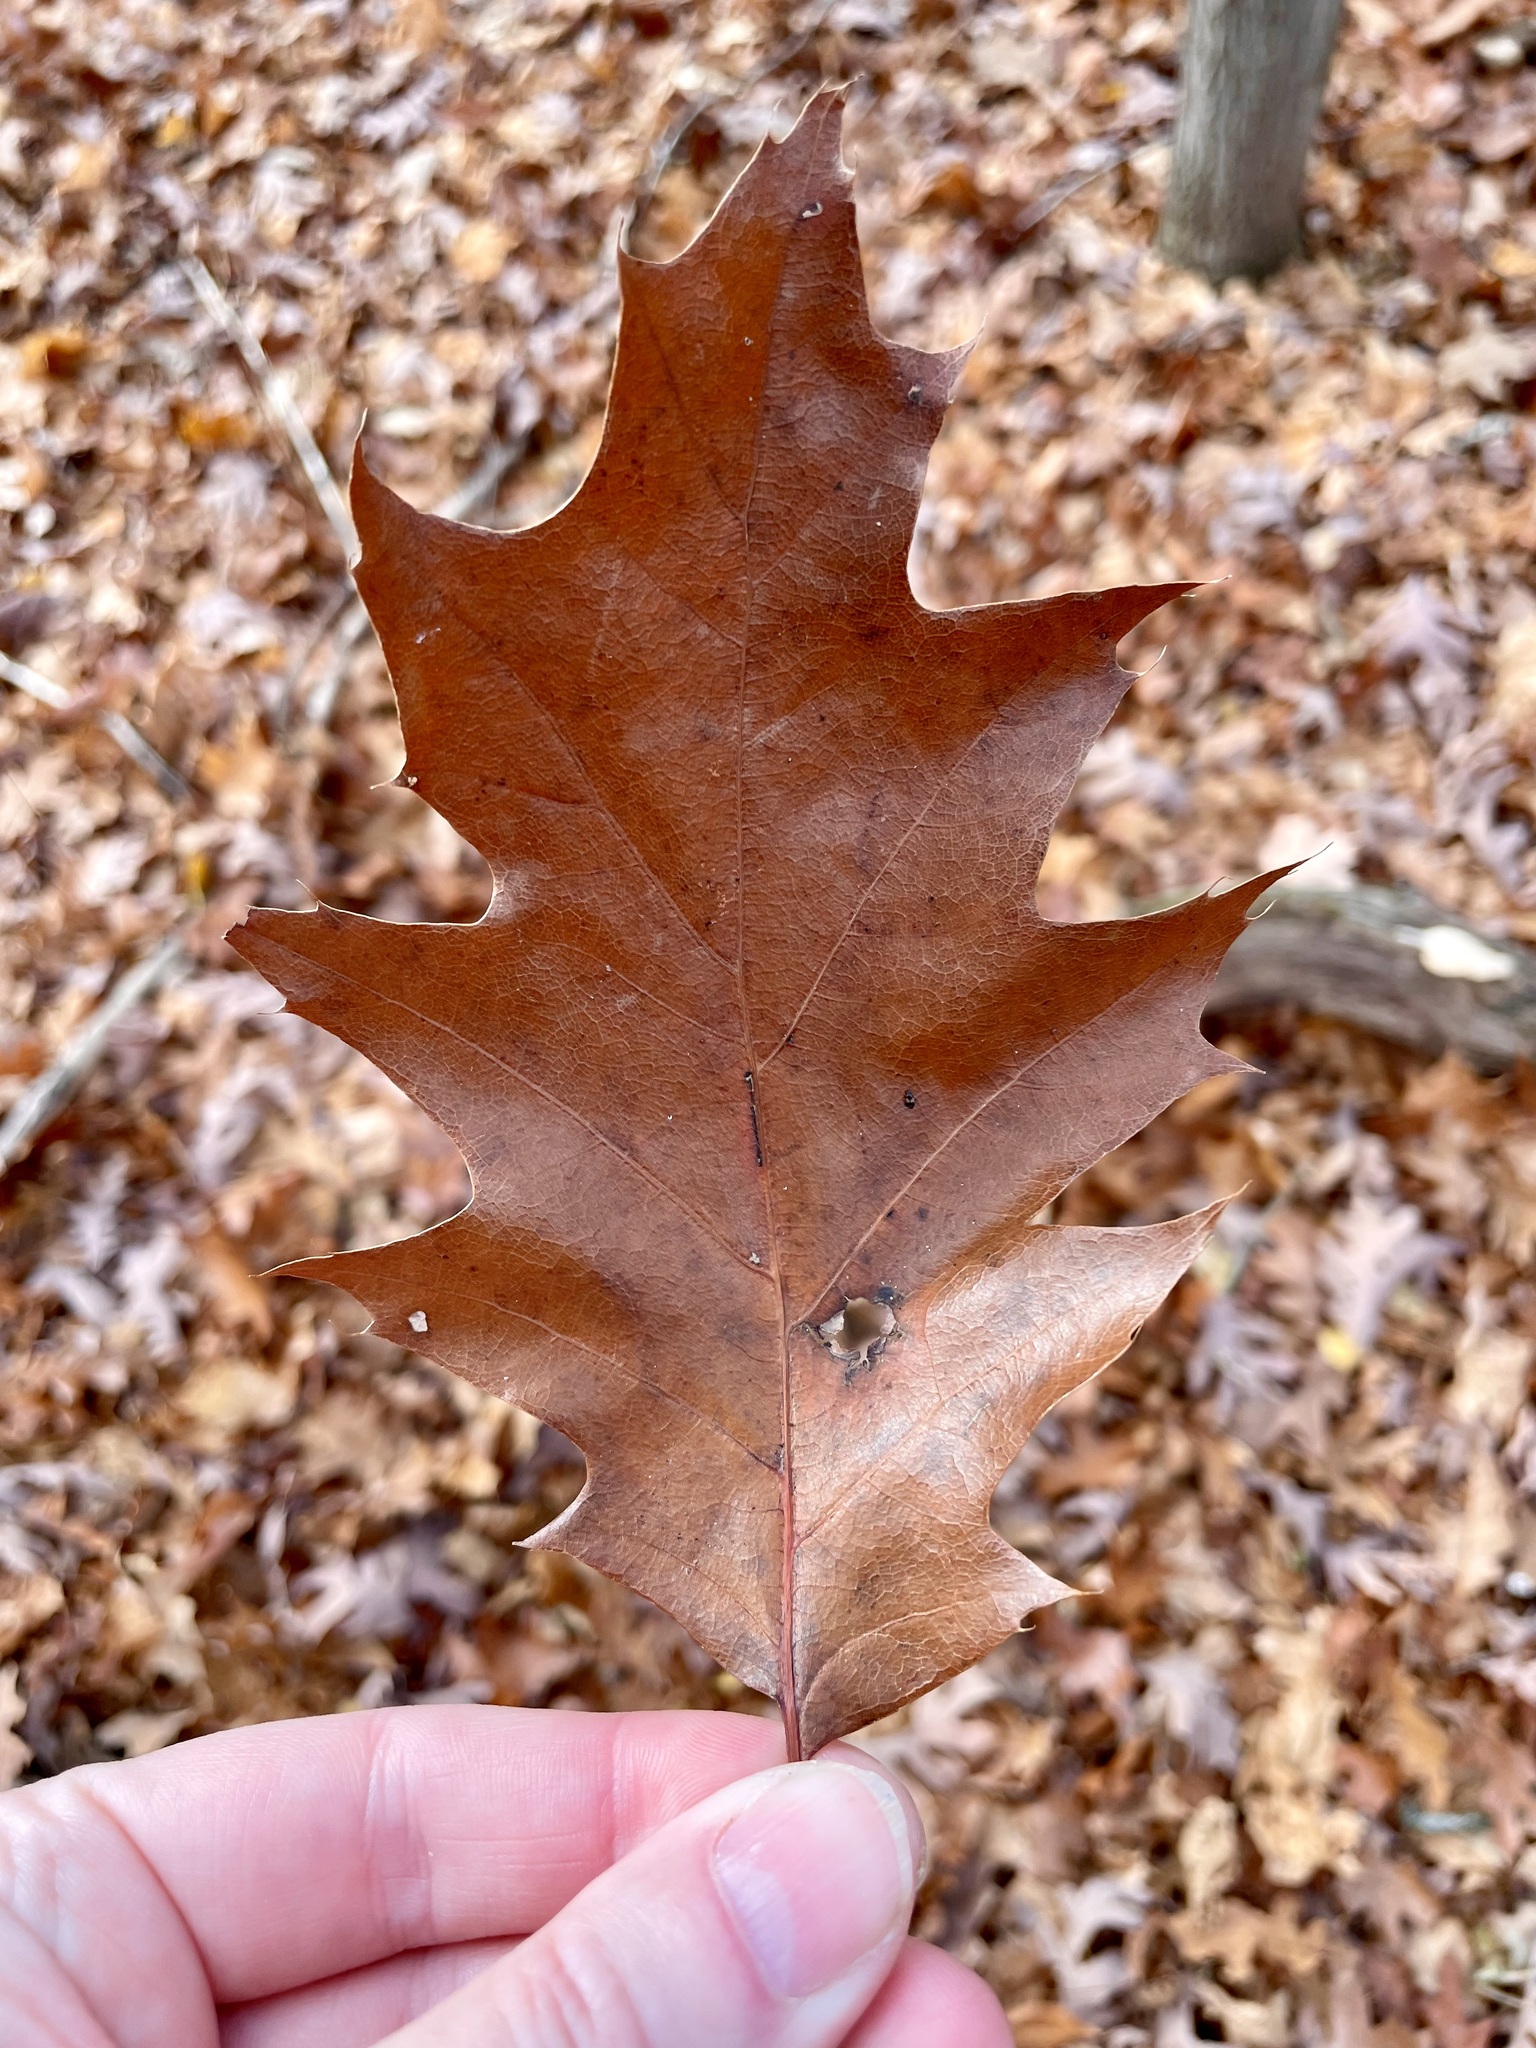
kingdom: Plantae
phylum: Tracheophyta
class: Magnoliopsida
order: Fagales
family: Fagaceae
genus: Quercus
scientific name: Quercus rubra
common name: Red oak
